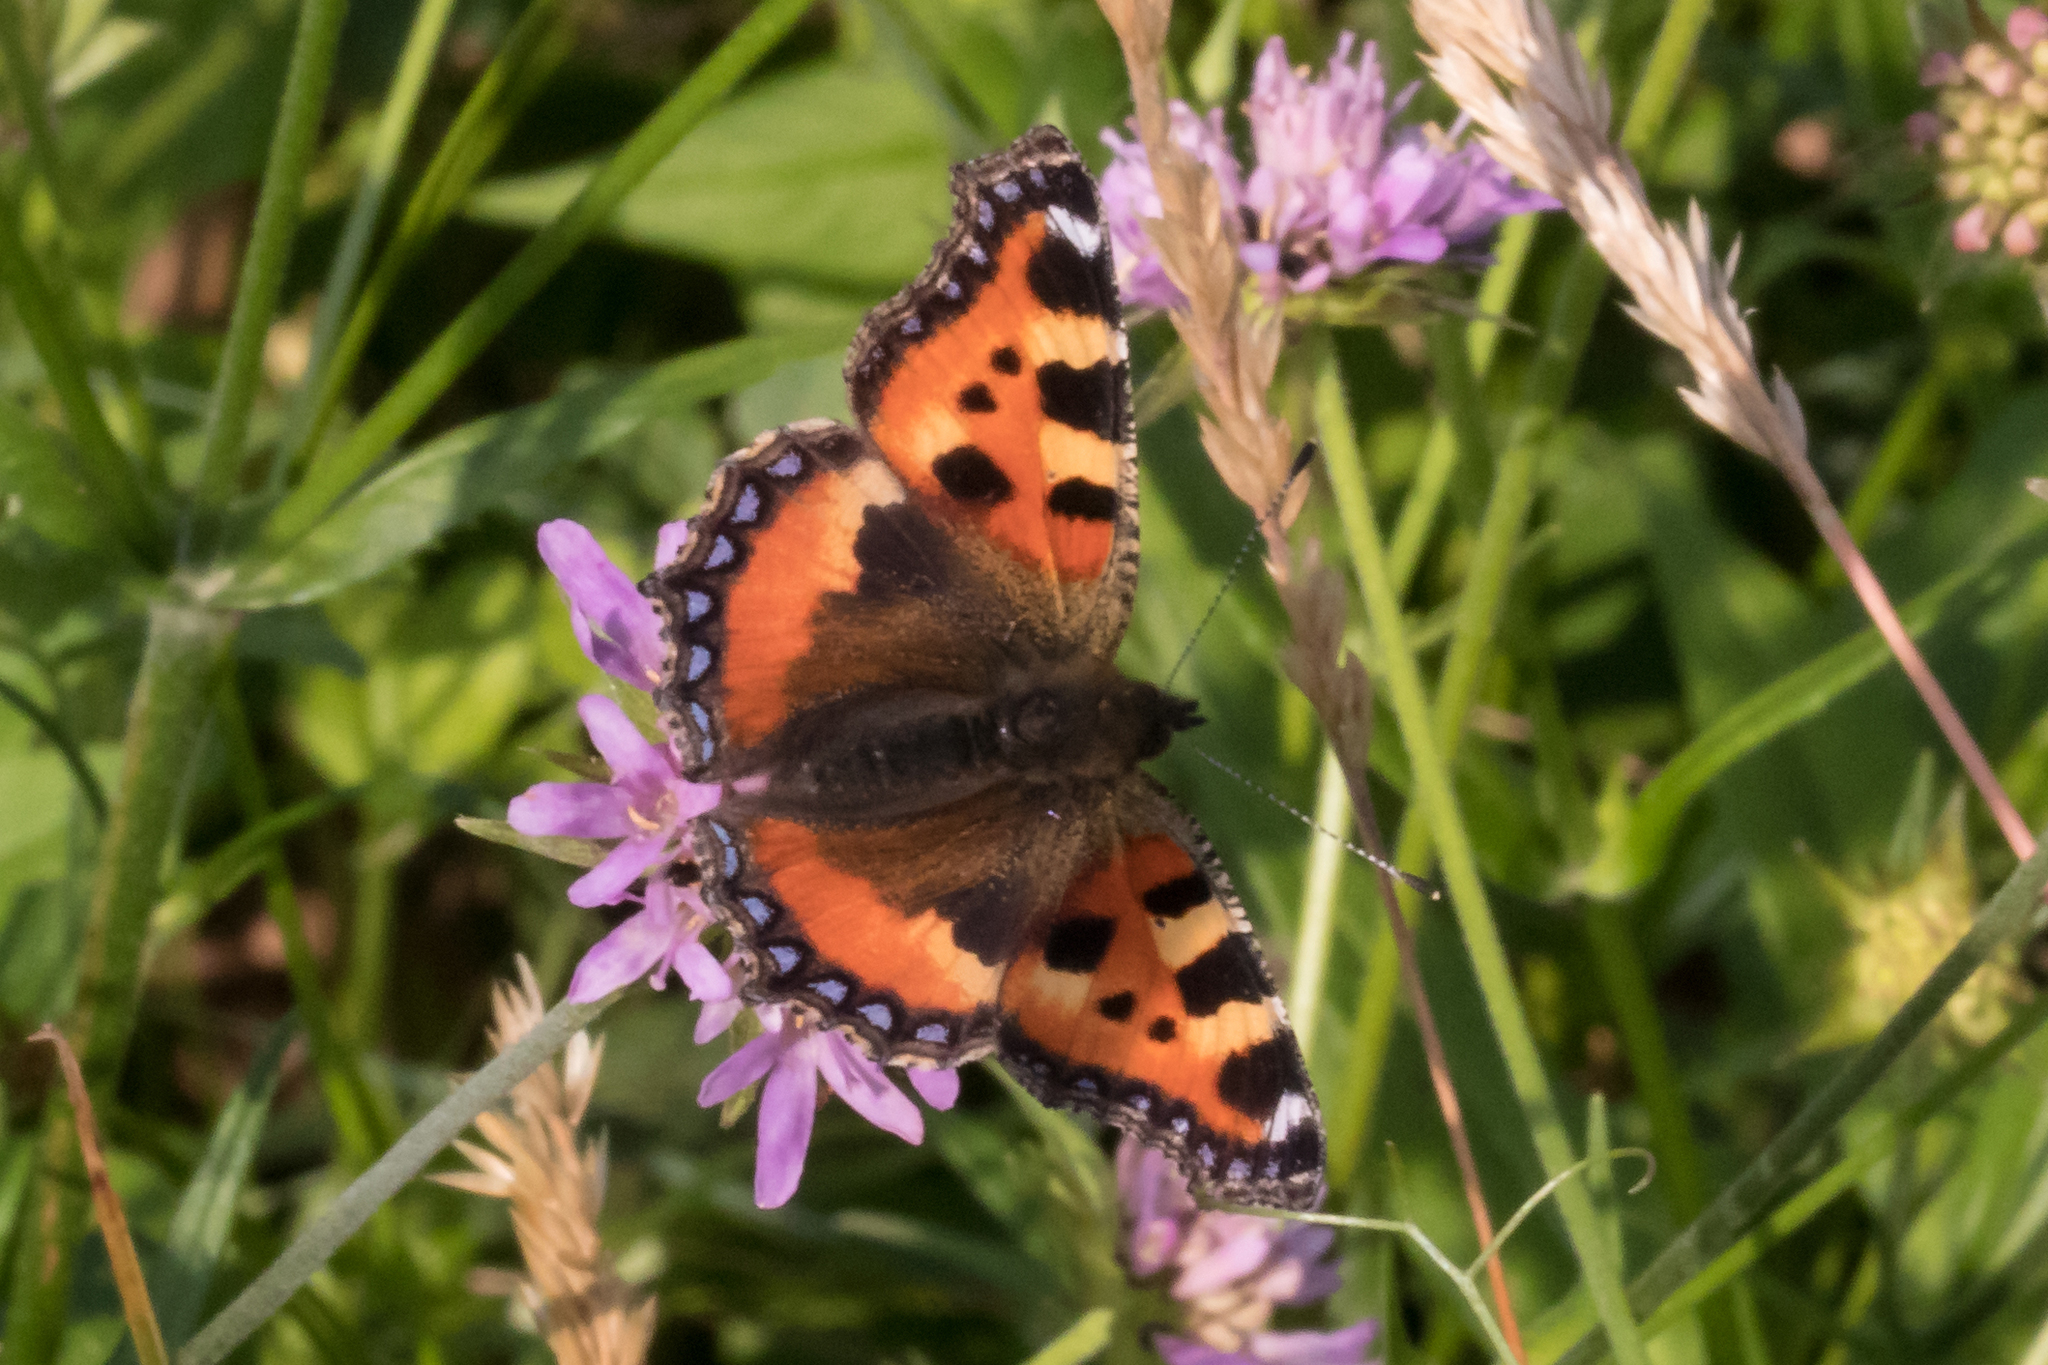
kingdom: Animalia
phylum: Arthropoda
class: Insecta
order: Lepidoptera
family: Nymphalidae
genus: Aglais
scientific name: Aglais urticae
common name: Small tortoiseshell
